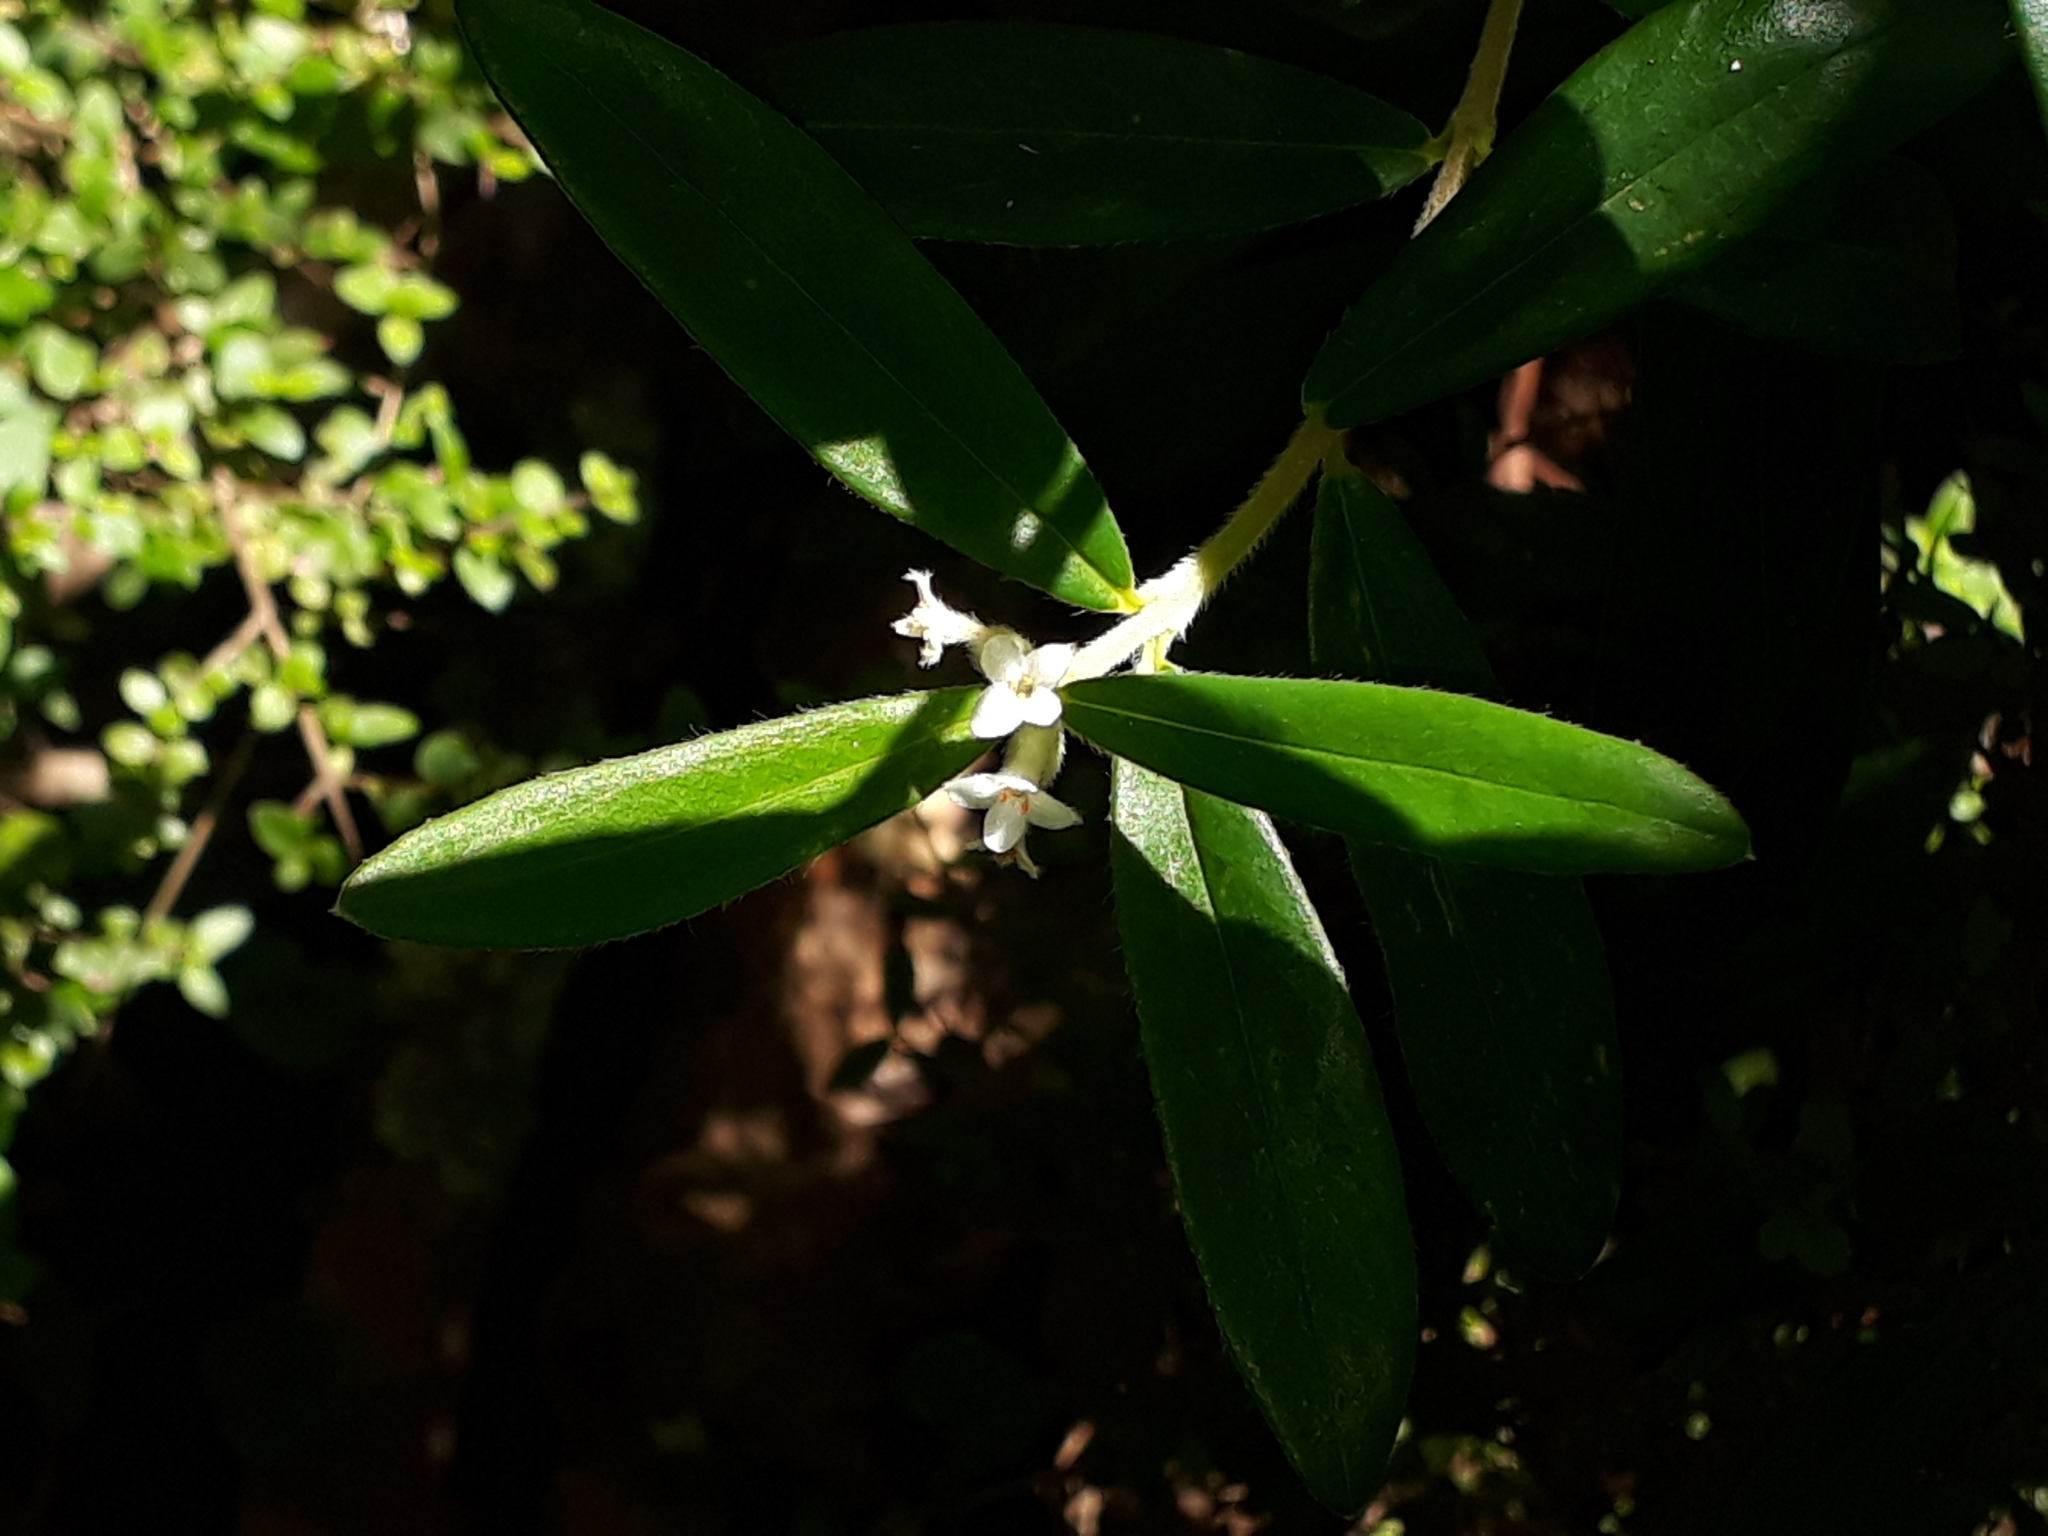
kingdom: Plantae
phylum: Tracheophyta
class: Magnoliopsida
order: Malvales
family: Thymelaeaceae
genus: Pimelea
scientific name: Pimelea drupacea
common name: Cherry riceflower
